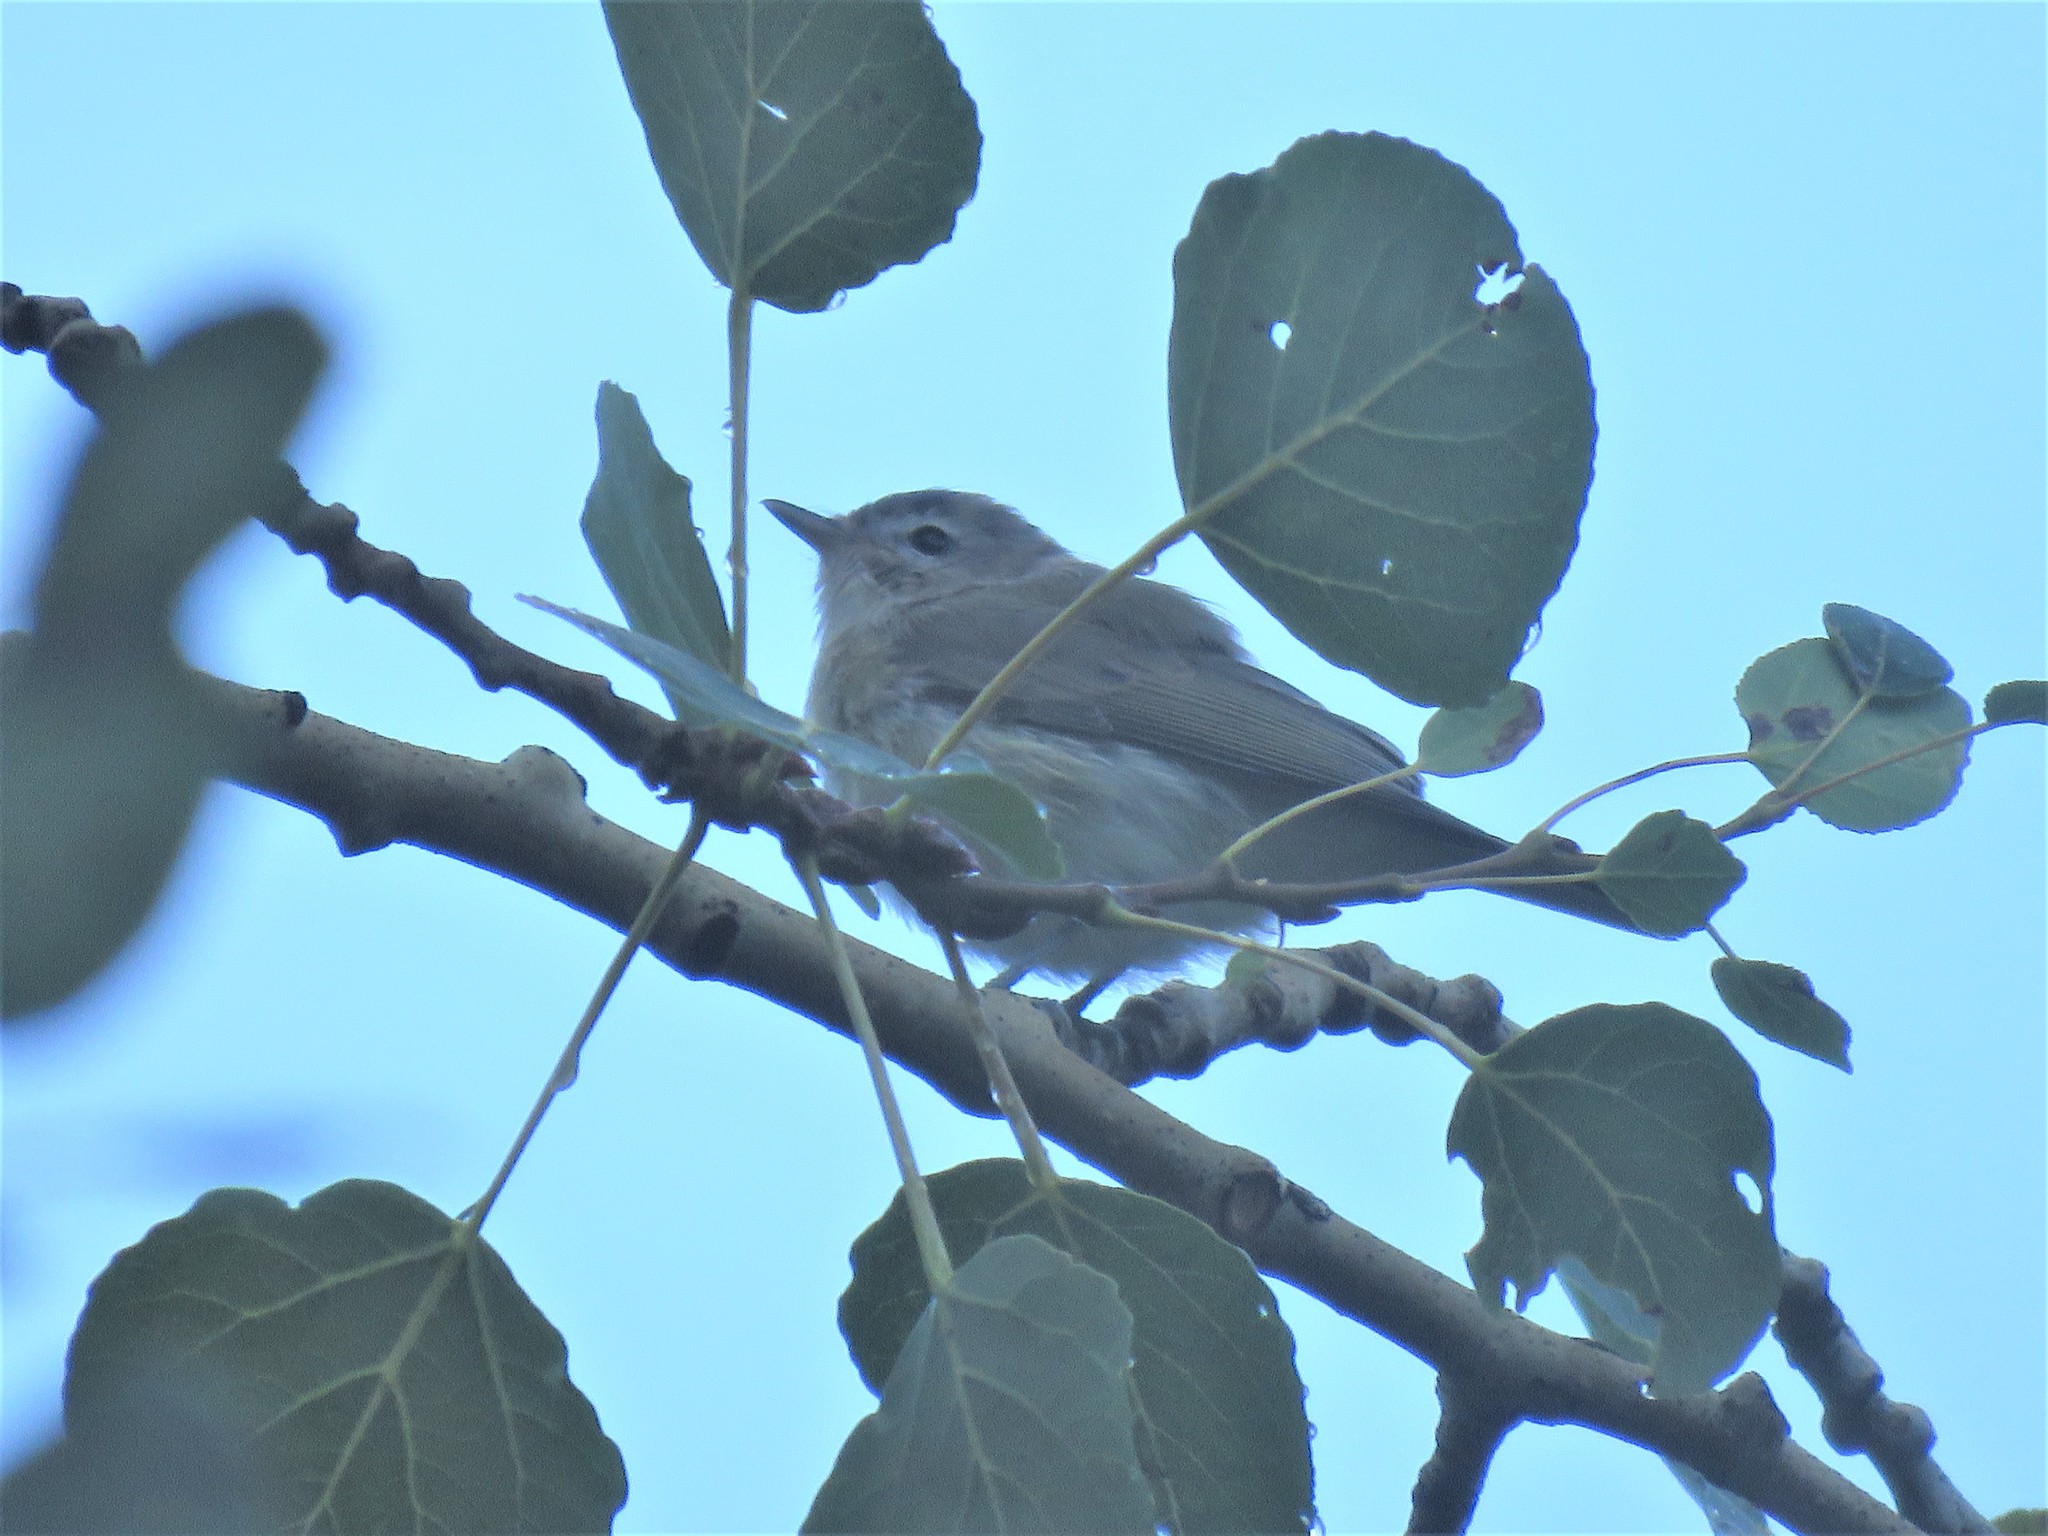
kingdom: Animalia
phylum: Chordata
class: Aves
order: Passeriformes
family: Vireonidae
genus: Vireo
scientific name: Vireo gilvus
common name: Warbling vireo
